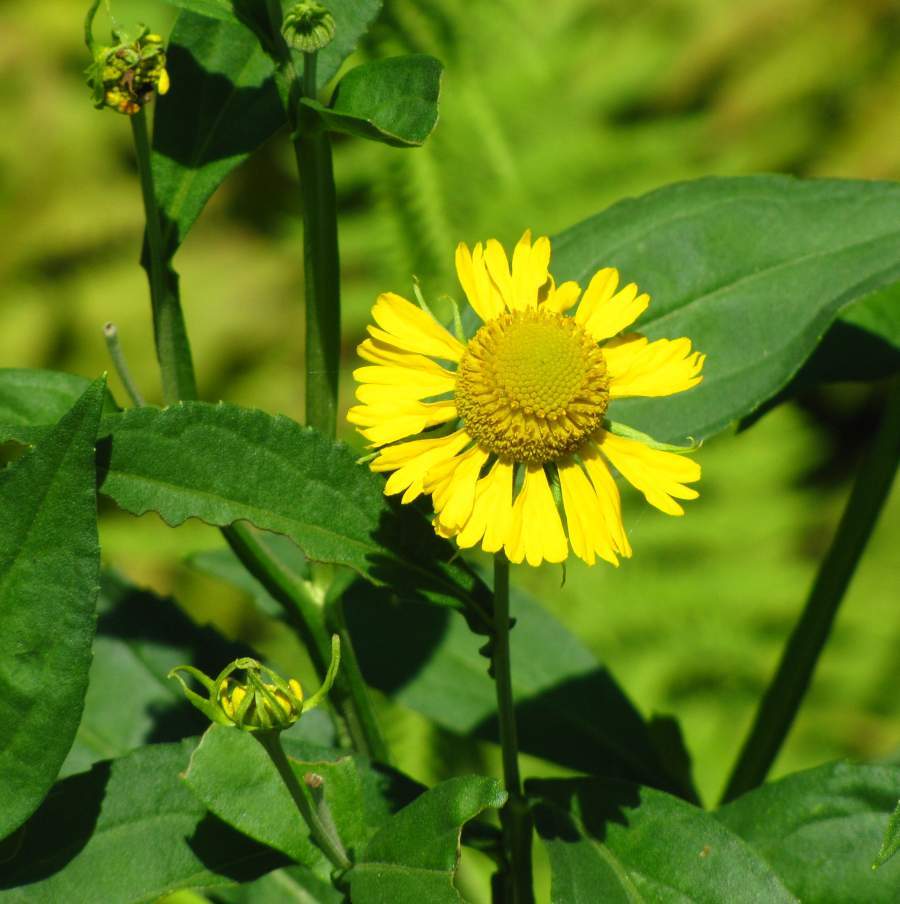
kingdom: Plantae
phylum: Tracheophyta
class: Magnoliopsida
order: Asterales
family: Asteraceae
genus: Helenium
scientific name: Helenium autumnale
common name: Sneezeweed
